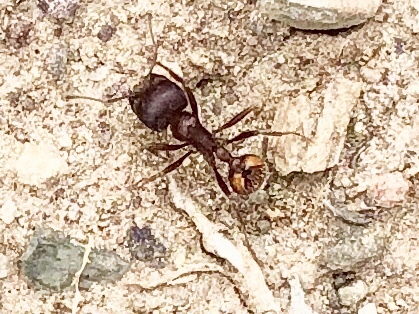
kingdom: Animalia
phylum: Arthropoda
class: Insecta
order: Hymenoptera
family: Formicidae
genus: Pogonomyrmex
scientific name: Pogonomyrmex rugosus
